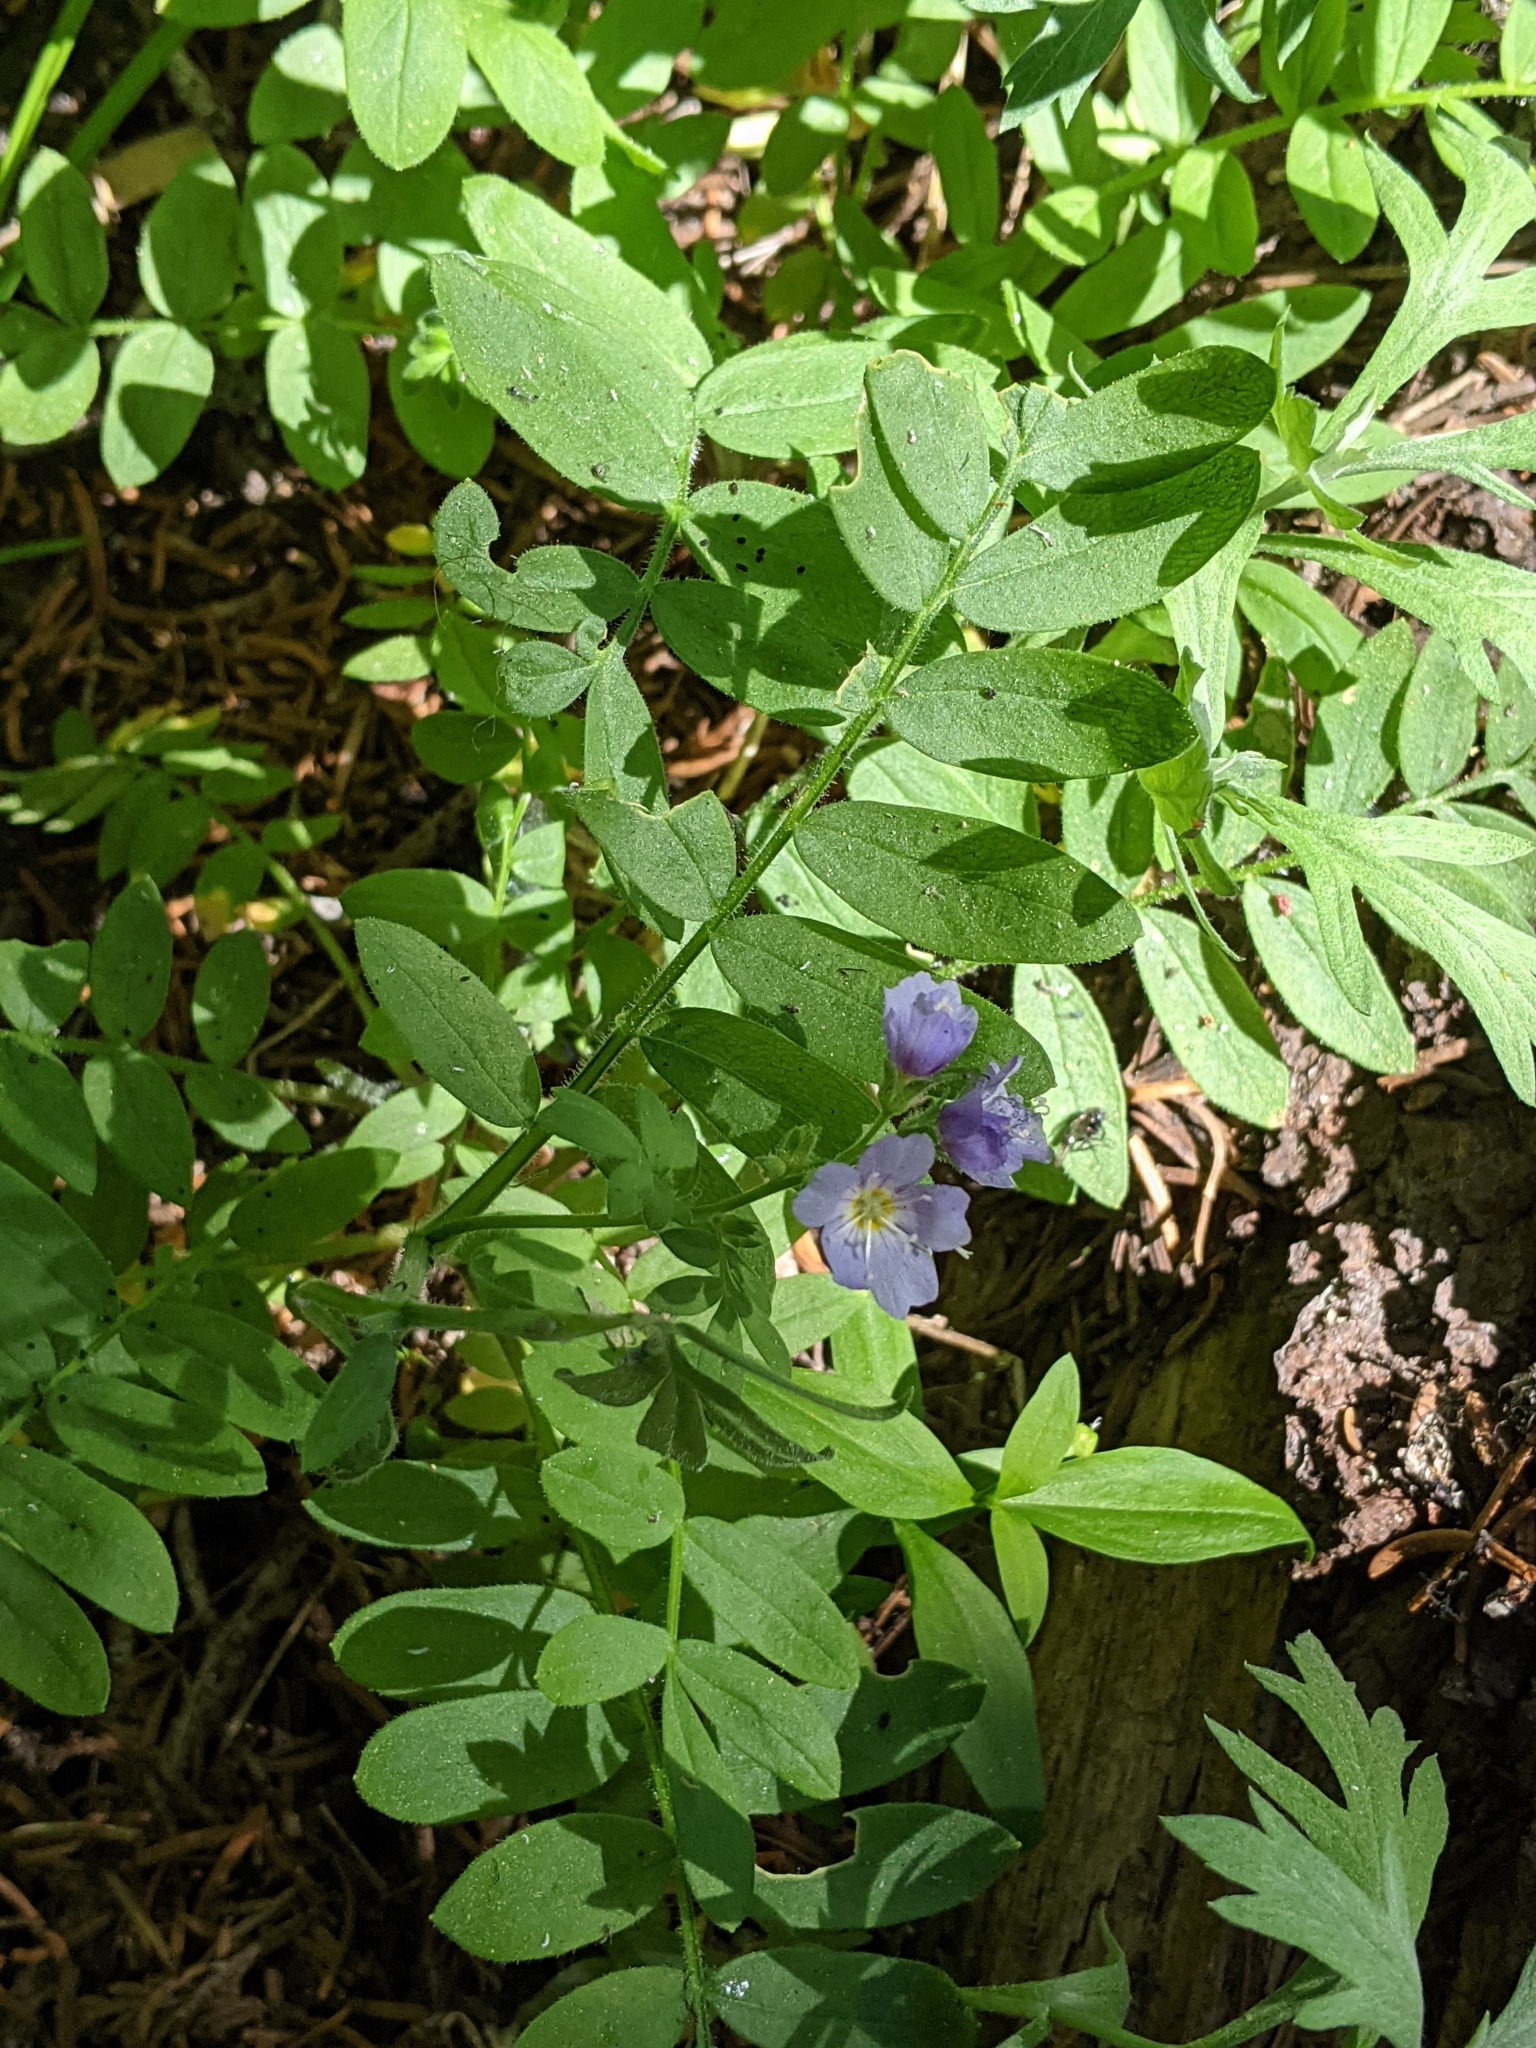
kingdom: Plantae
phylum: Tracheophyta
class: Magnoliopsida
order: Ericales
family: Polemoniaceae
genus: Polemonium
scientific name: Polemonium californicum
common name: California jacob's ladder
